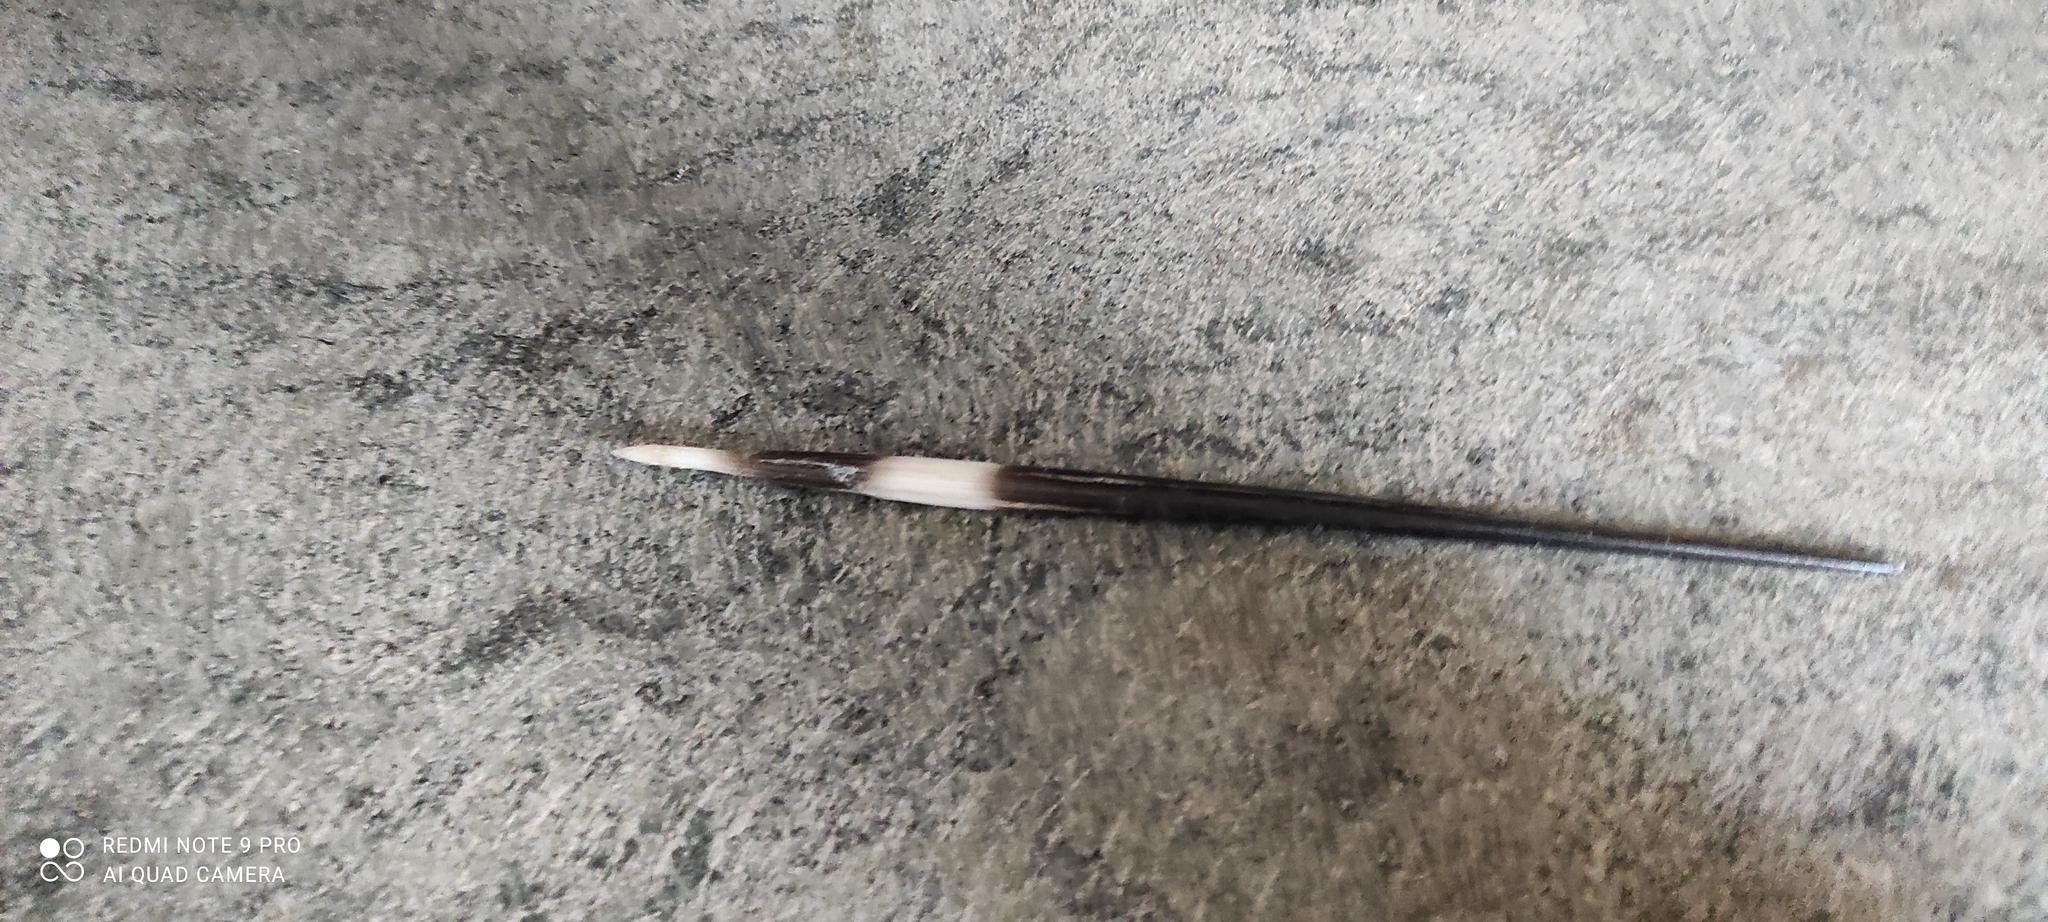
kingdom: Animalia
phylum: Chordata
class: Mammalia
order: Rodentia
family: Hystricidae
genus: Hystrix
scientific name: Hystrix cristata
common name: Crested porcupine
